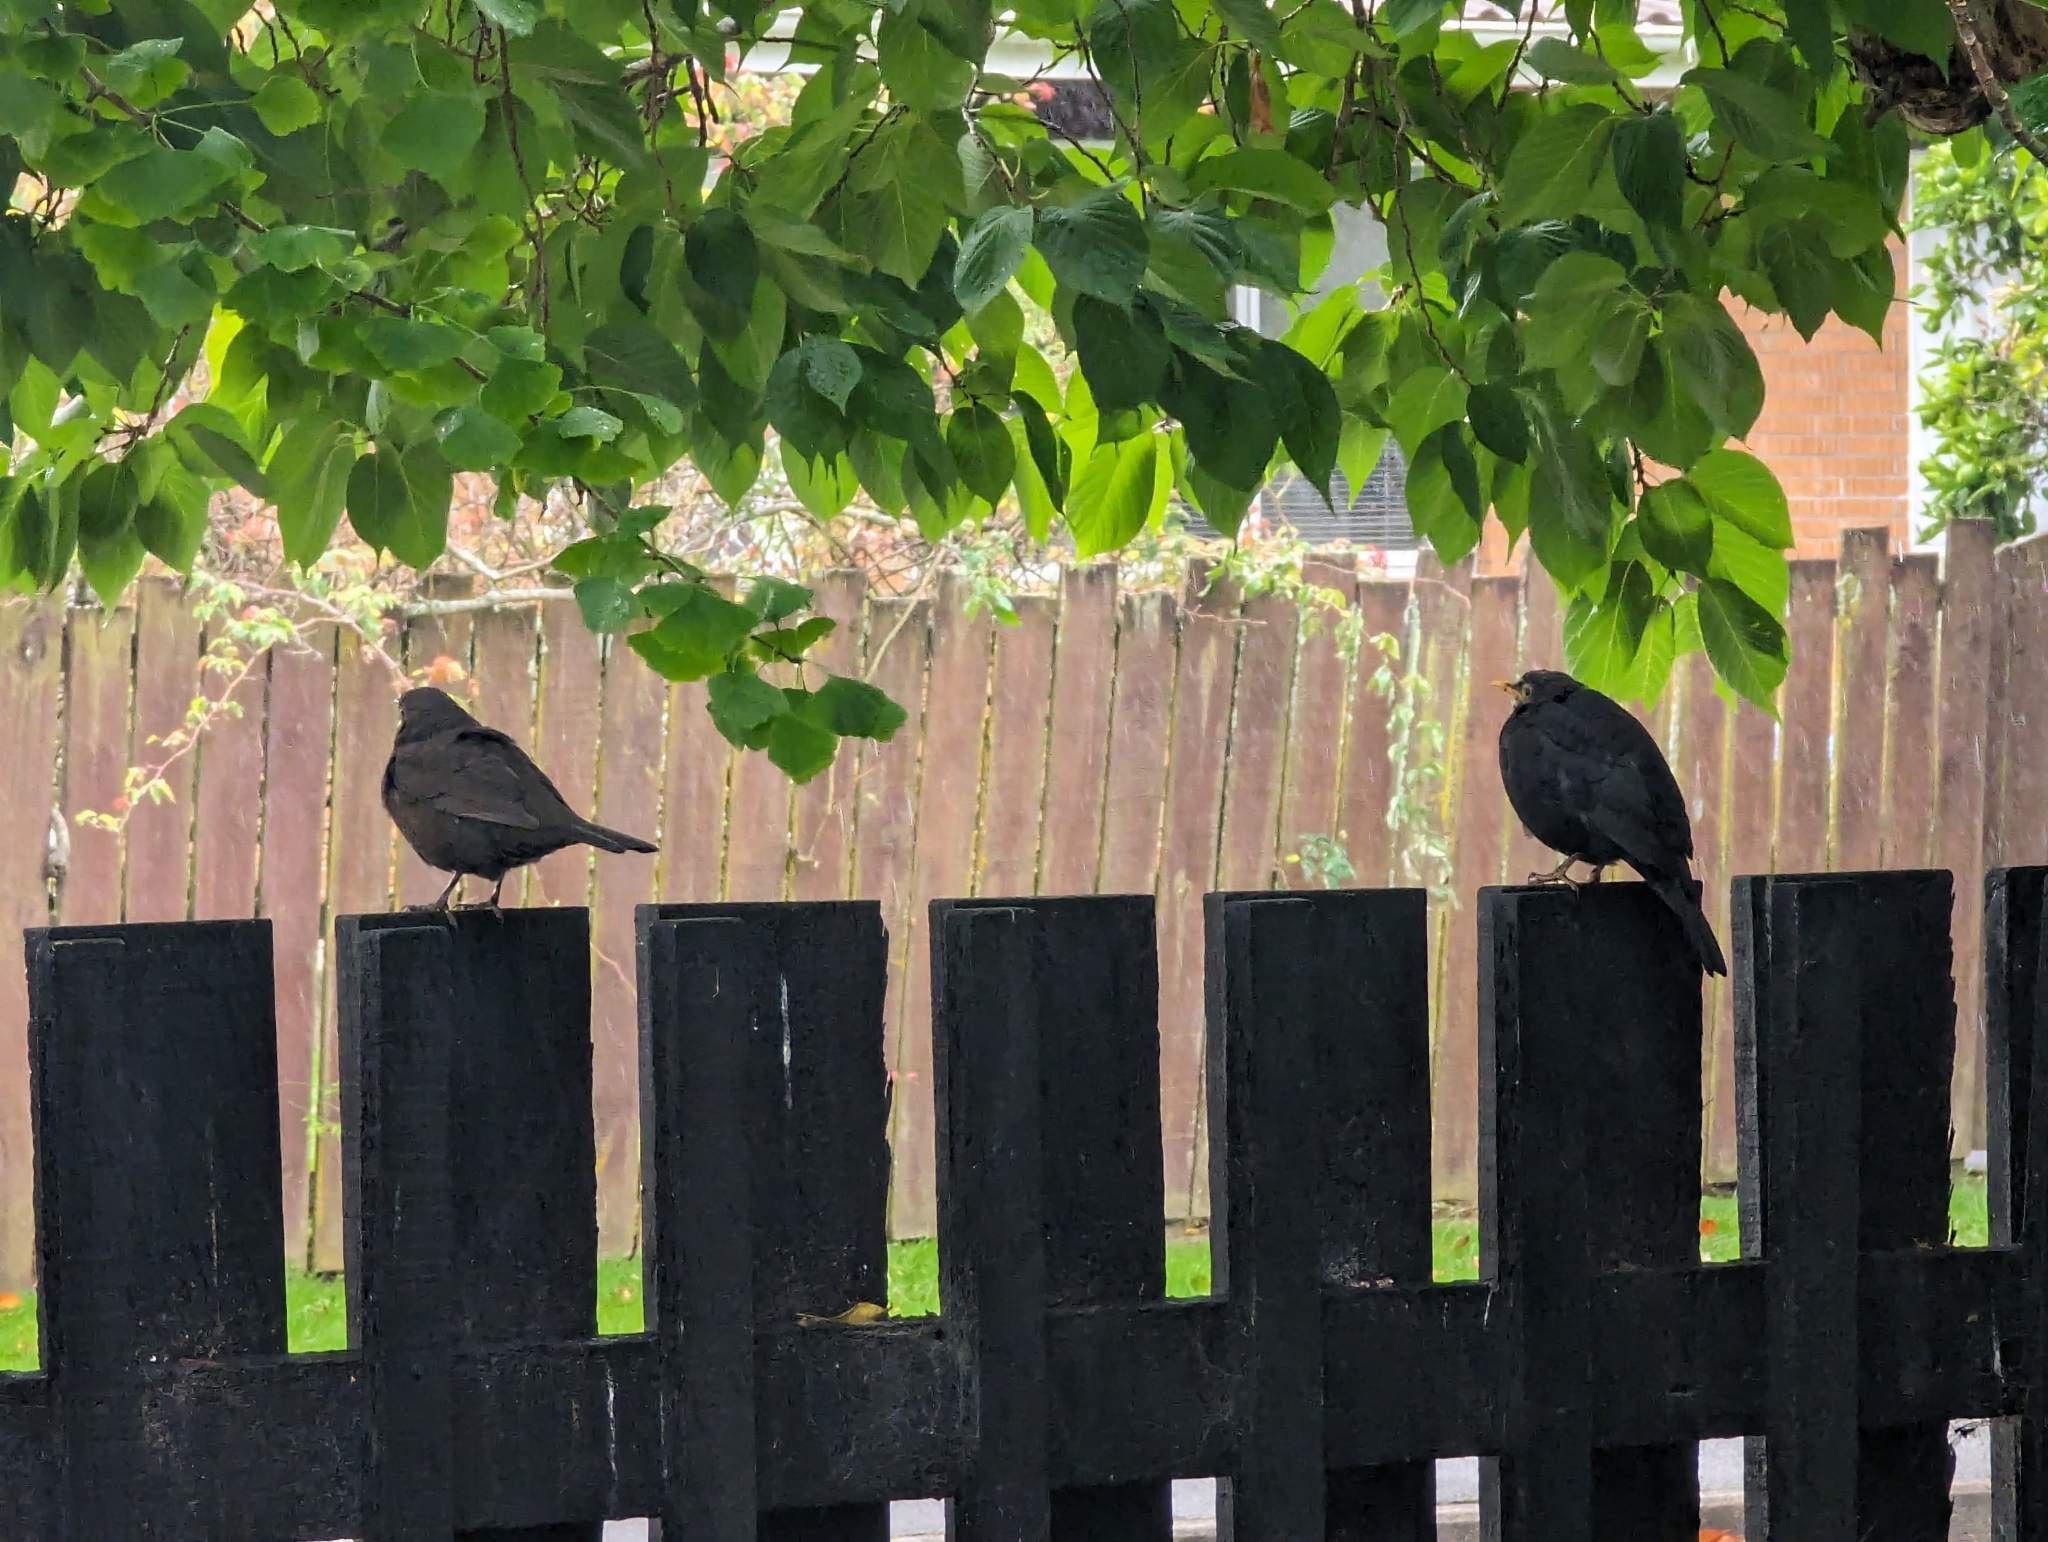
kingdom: Animalia
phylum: Chordata
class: Aves
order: Passeriformes
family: Turdidae
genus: Turdus
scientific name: Turdus merula
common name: Common blackbird
